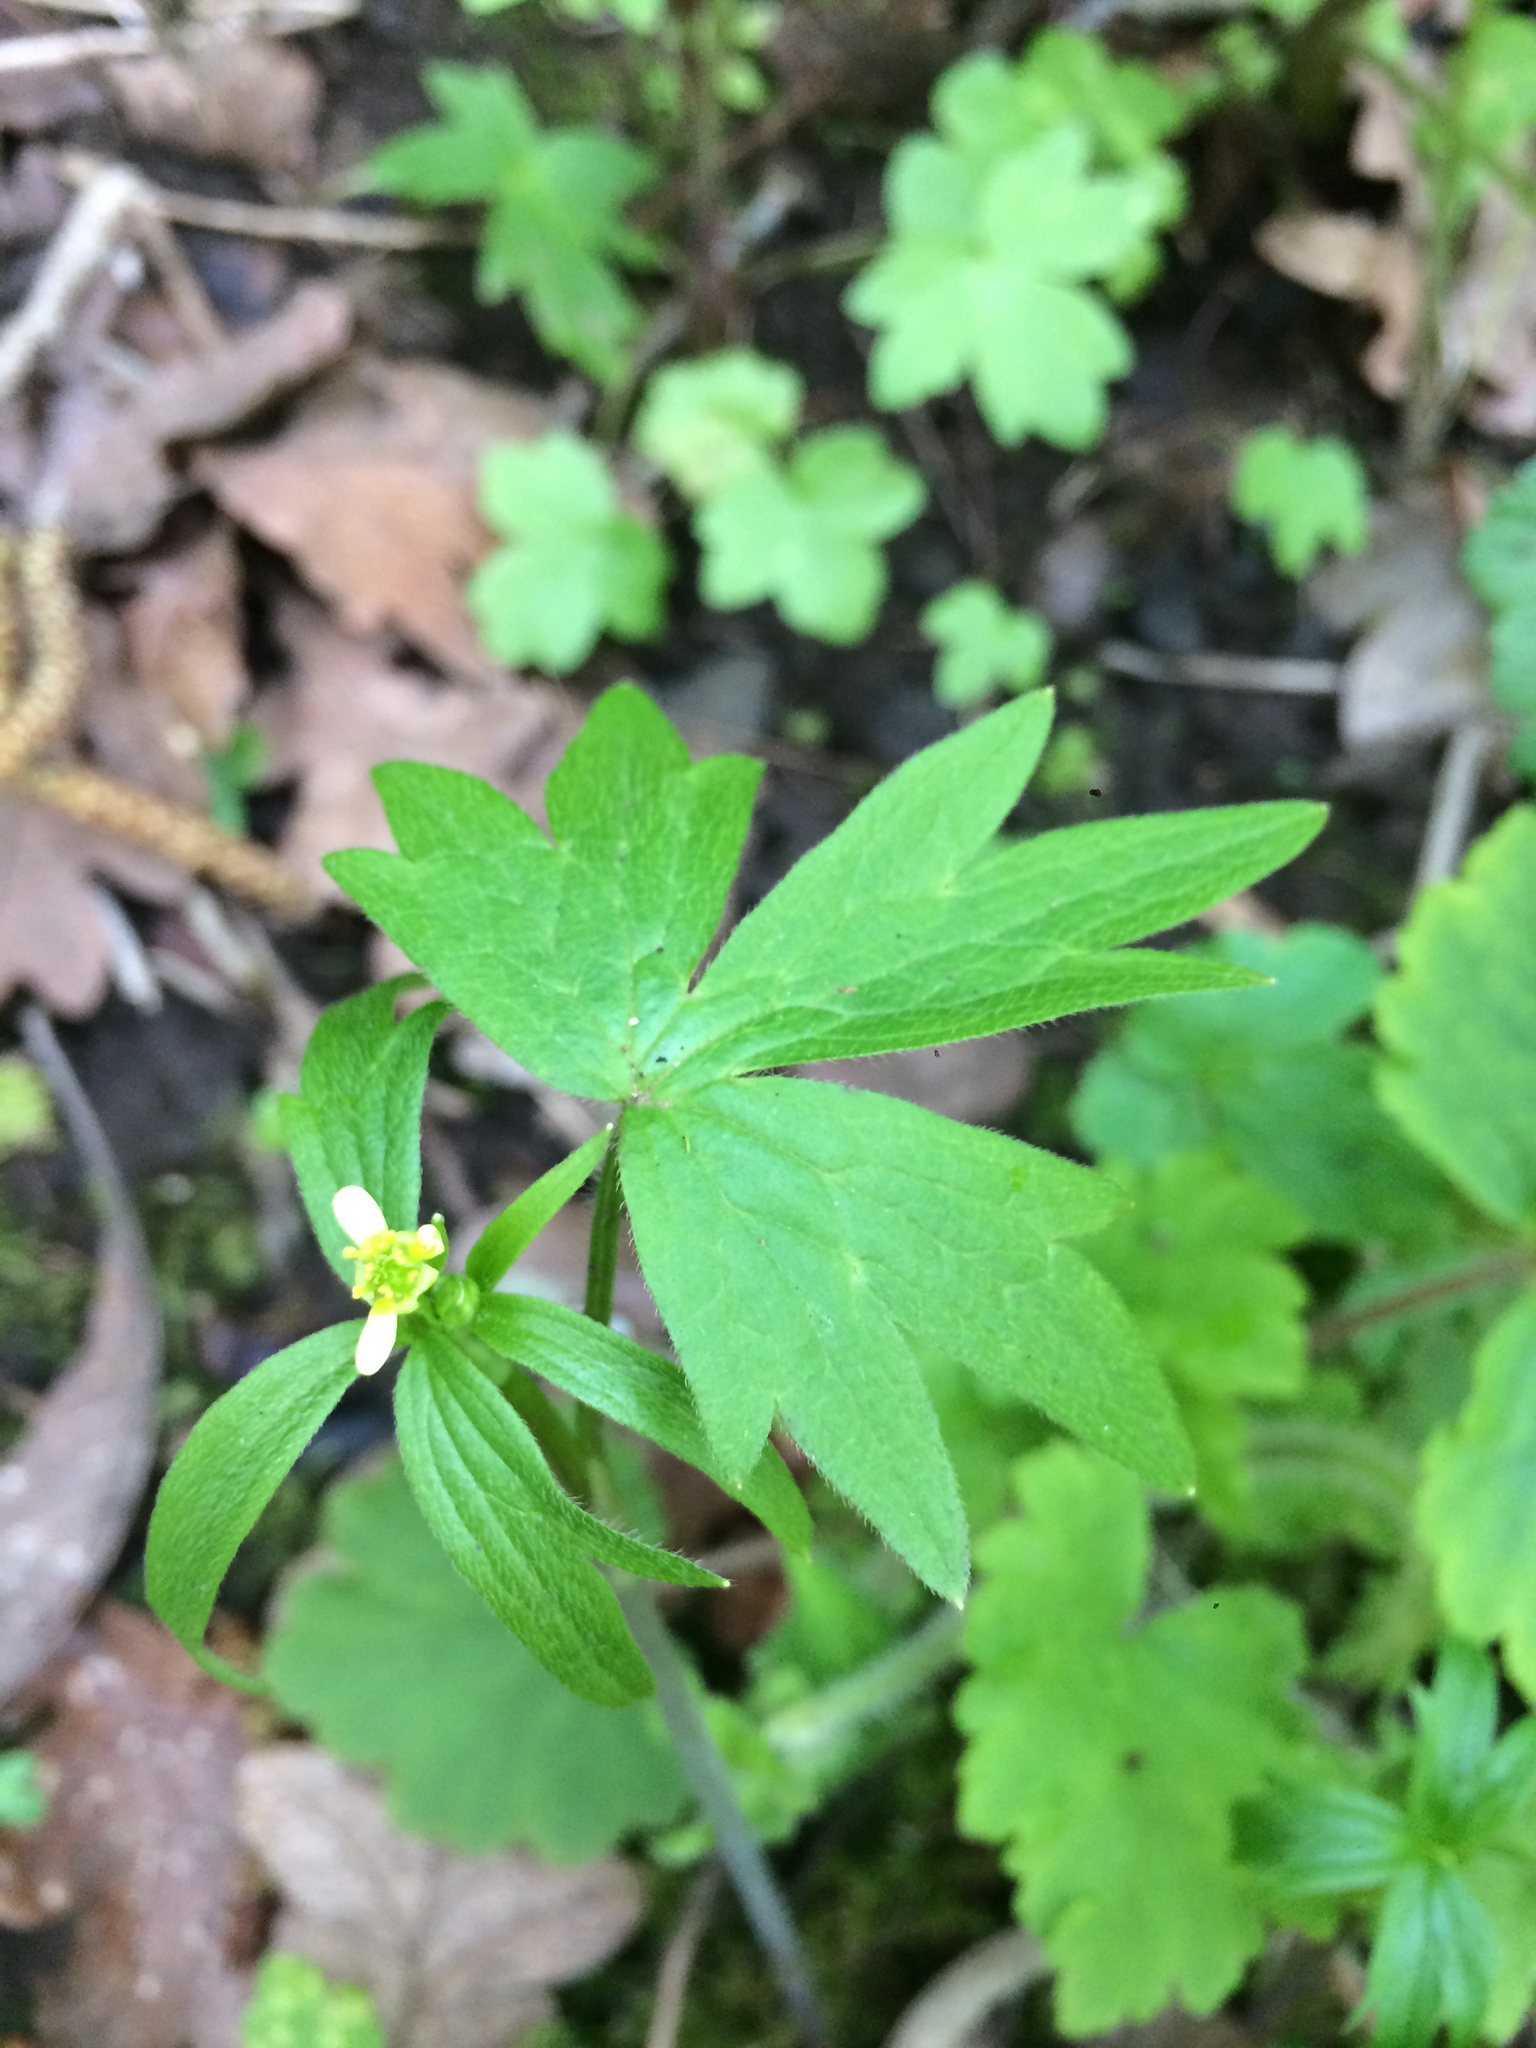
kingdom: Plantae
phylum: Tracheophyta
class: Magnoliopsida
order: Ranunculales
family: Ranunculaceae
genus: Ranunculus
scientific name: Ranunculus uncinatus
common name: Little buttercup
